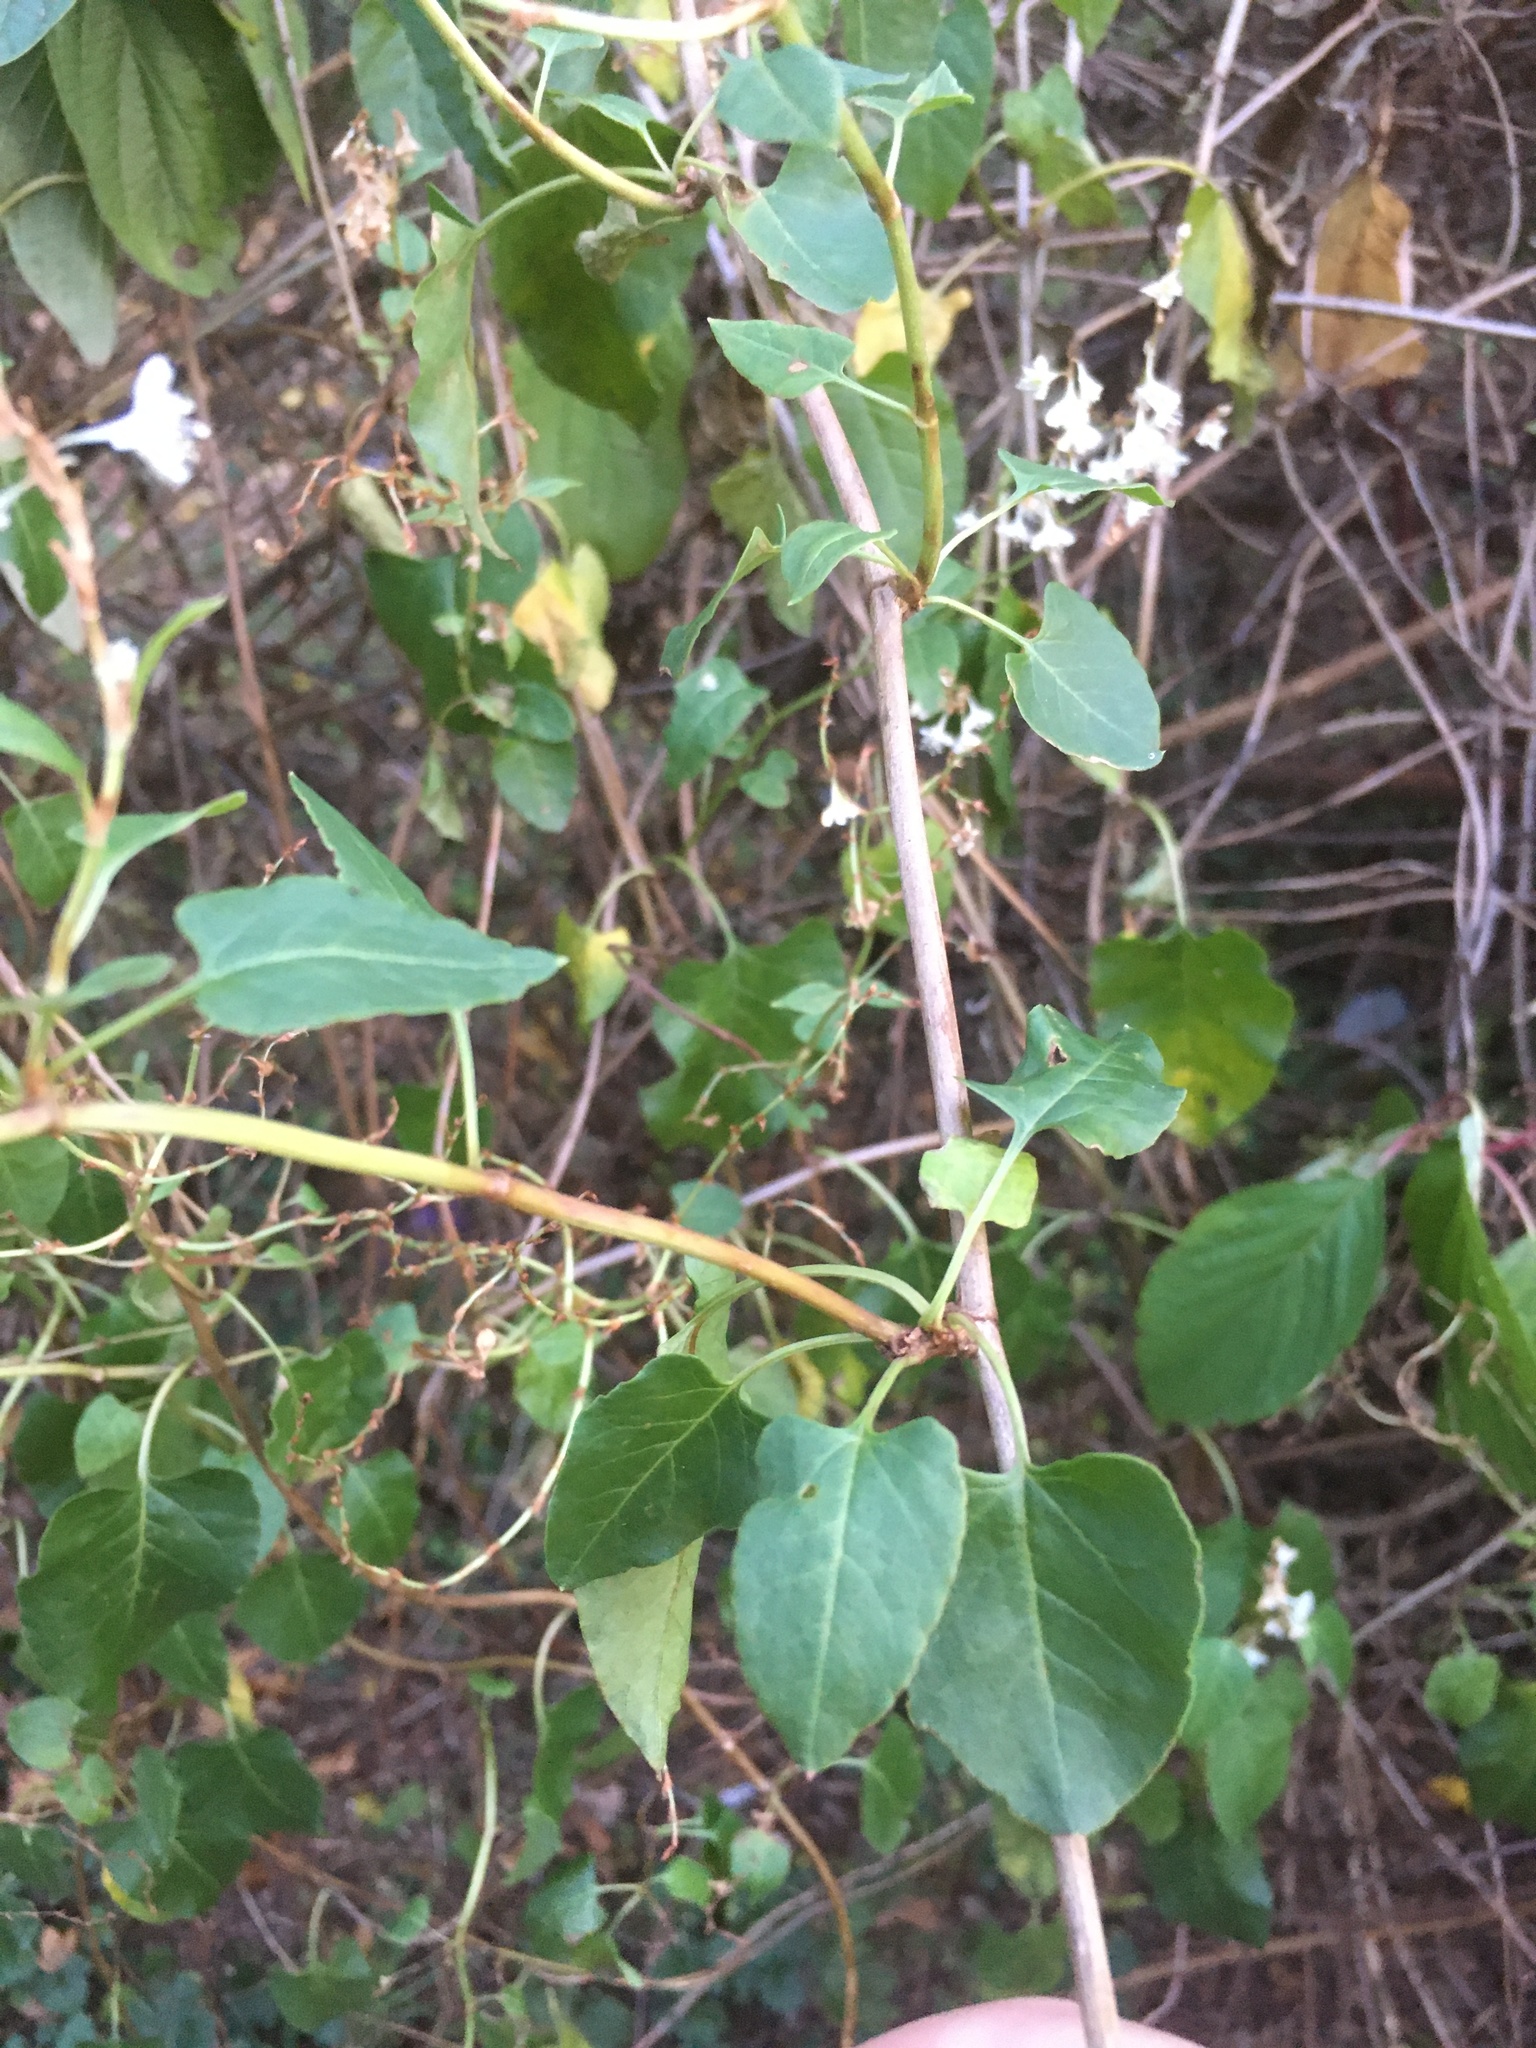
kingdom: Plantae
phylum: Tracheophyta
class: Magnoliopsida
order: Caryophyllales
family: Polygonaceae
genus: Fallopia
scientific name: Fallopia baldschuanica
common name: Russian-vine
